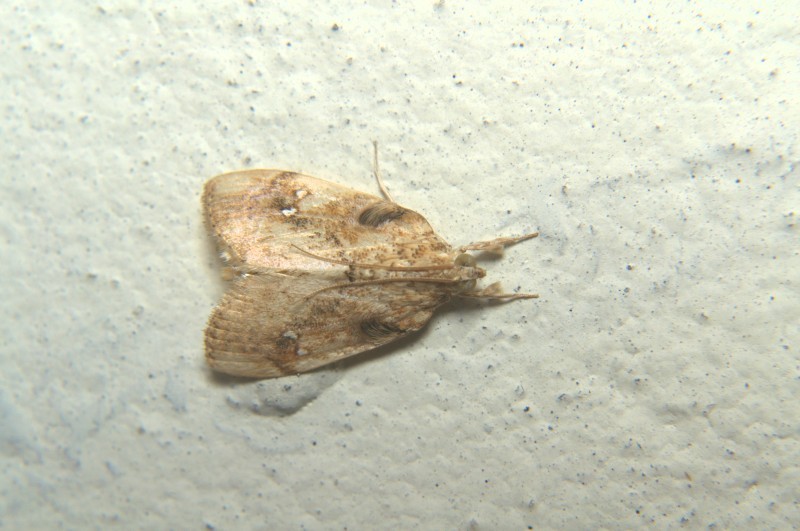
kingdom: Animalia
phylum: Arthropoda
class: Insecta
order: Lepidoptera
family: Crambidae
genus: Crocidolomia
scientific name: Crocidolomia pavonana
